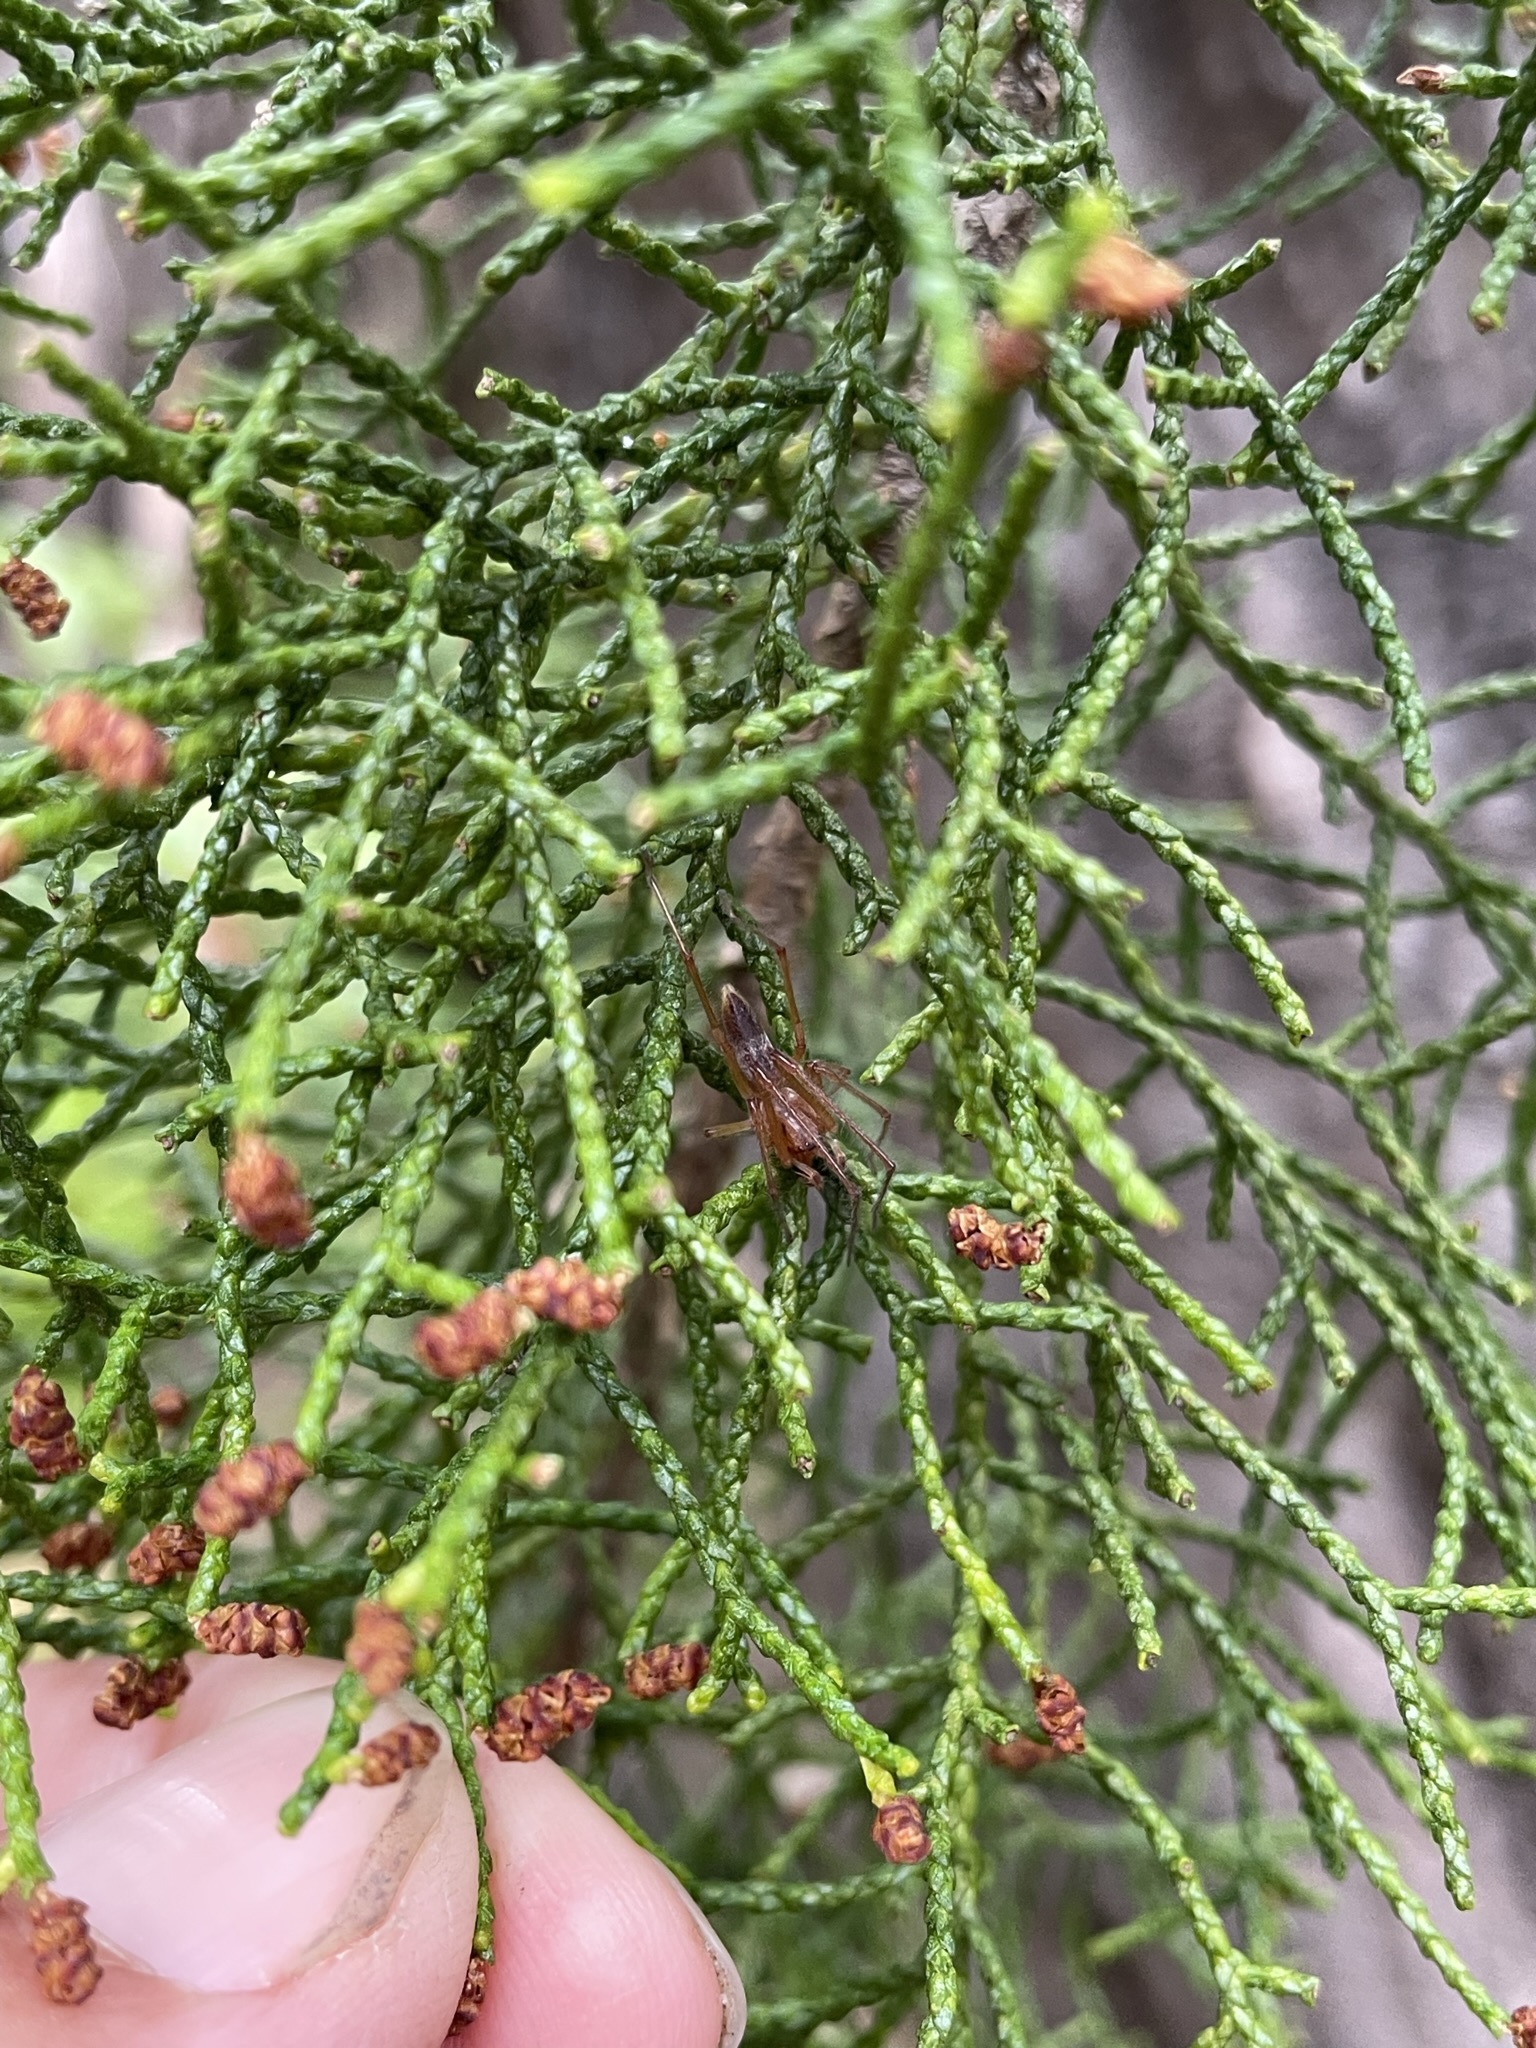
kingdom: Plantae
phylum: Tracheophyta
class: Pinopsida
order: Pinales
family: Podocarpaceae
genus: Lagarostrobos
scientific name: Lagarostrobos franklinii
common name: Huon pine
